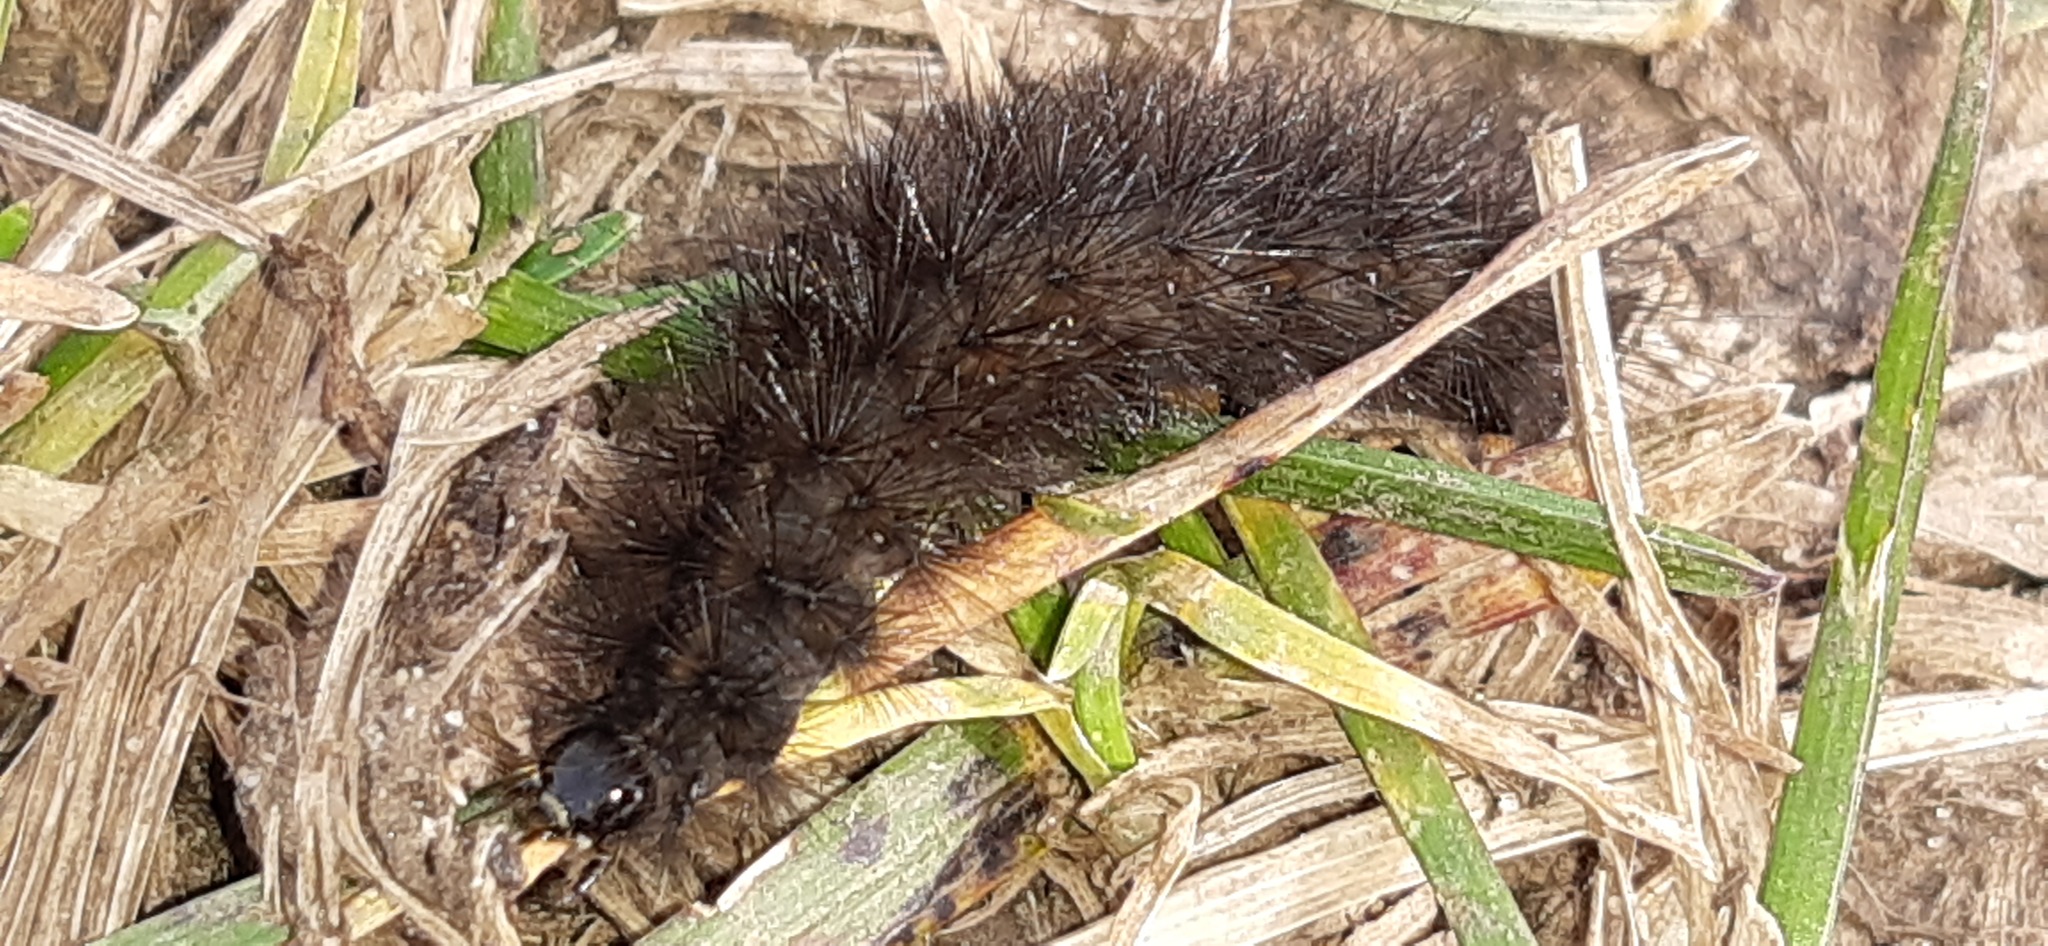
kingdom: Animalia
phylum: Arthropoda
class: Insecta
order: Lepidoptera
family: Erebidae
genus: Phragmatobia
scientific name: Phragmatobia fuliginosa
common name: Ruby tiger
